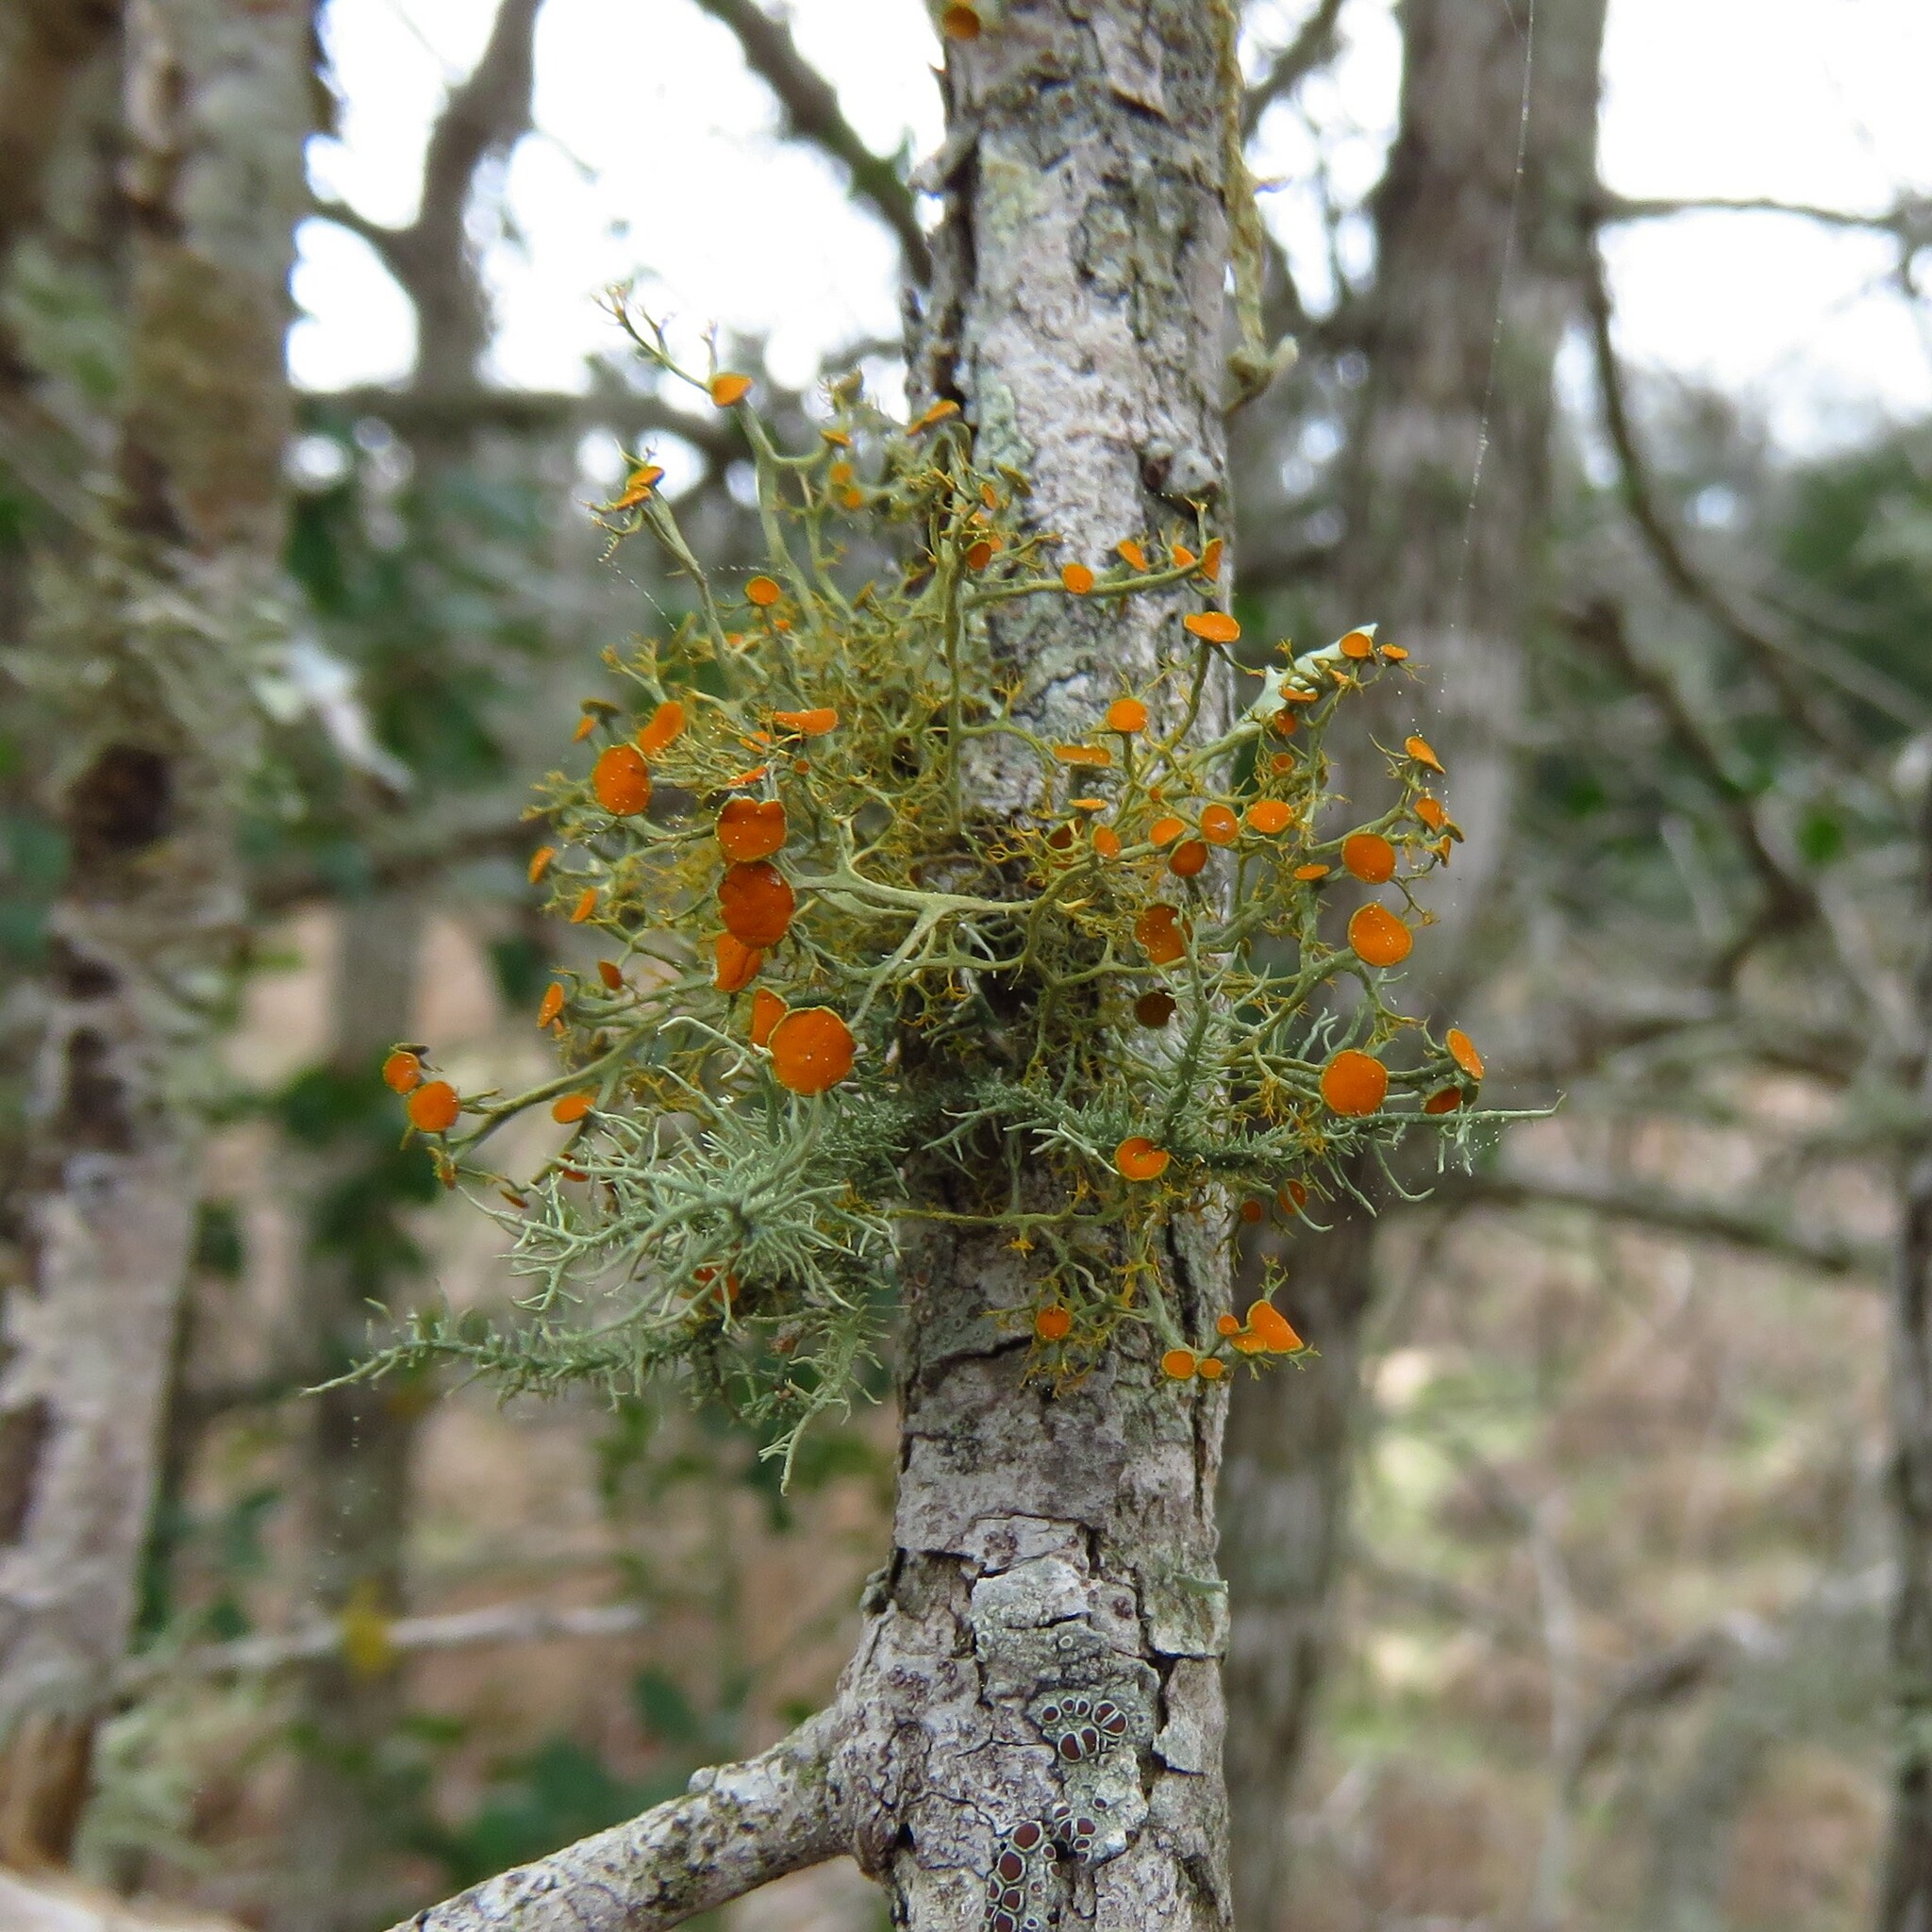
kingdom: Fungi
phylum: Ascomycota
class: Lecanoromycetes
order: Teloschistales
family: Teloschistaceae
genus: Teloschistes
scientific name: Teloschistes exilis
